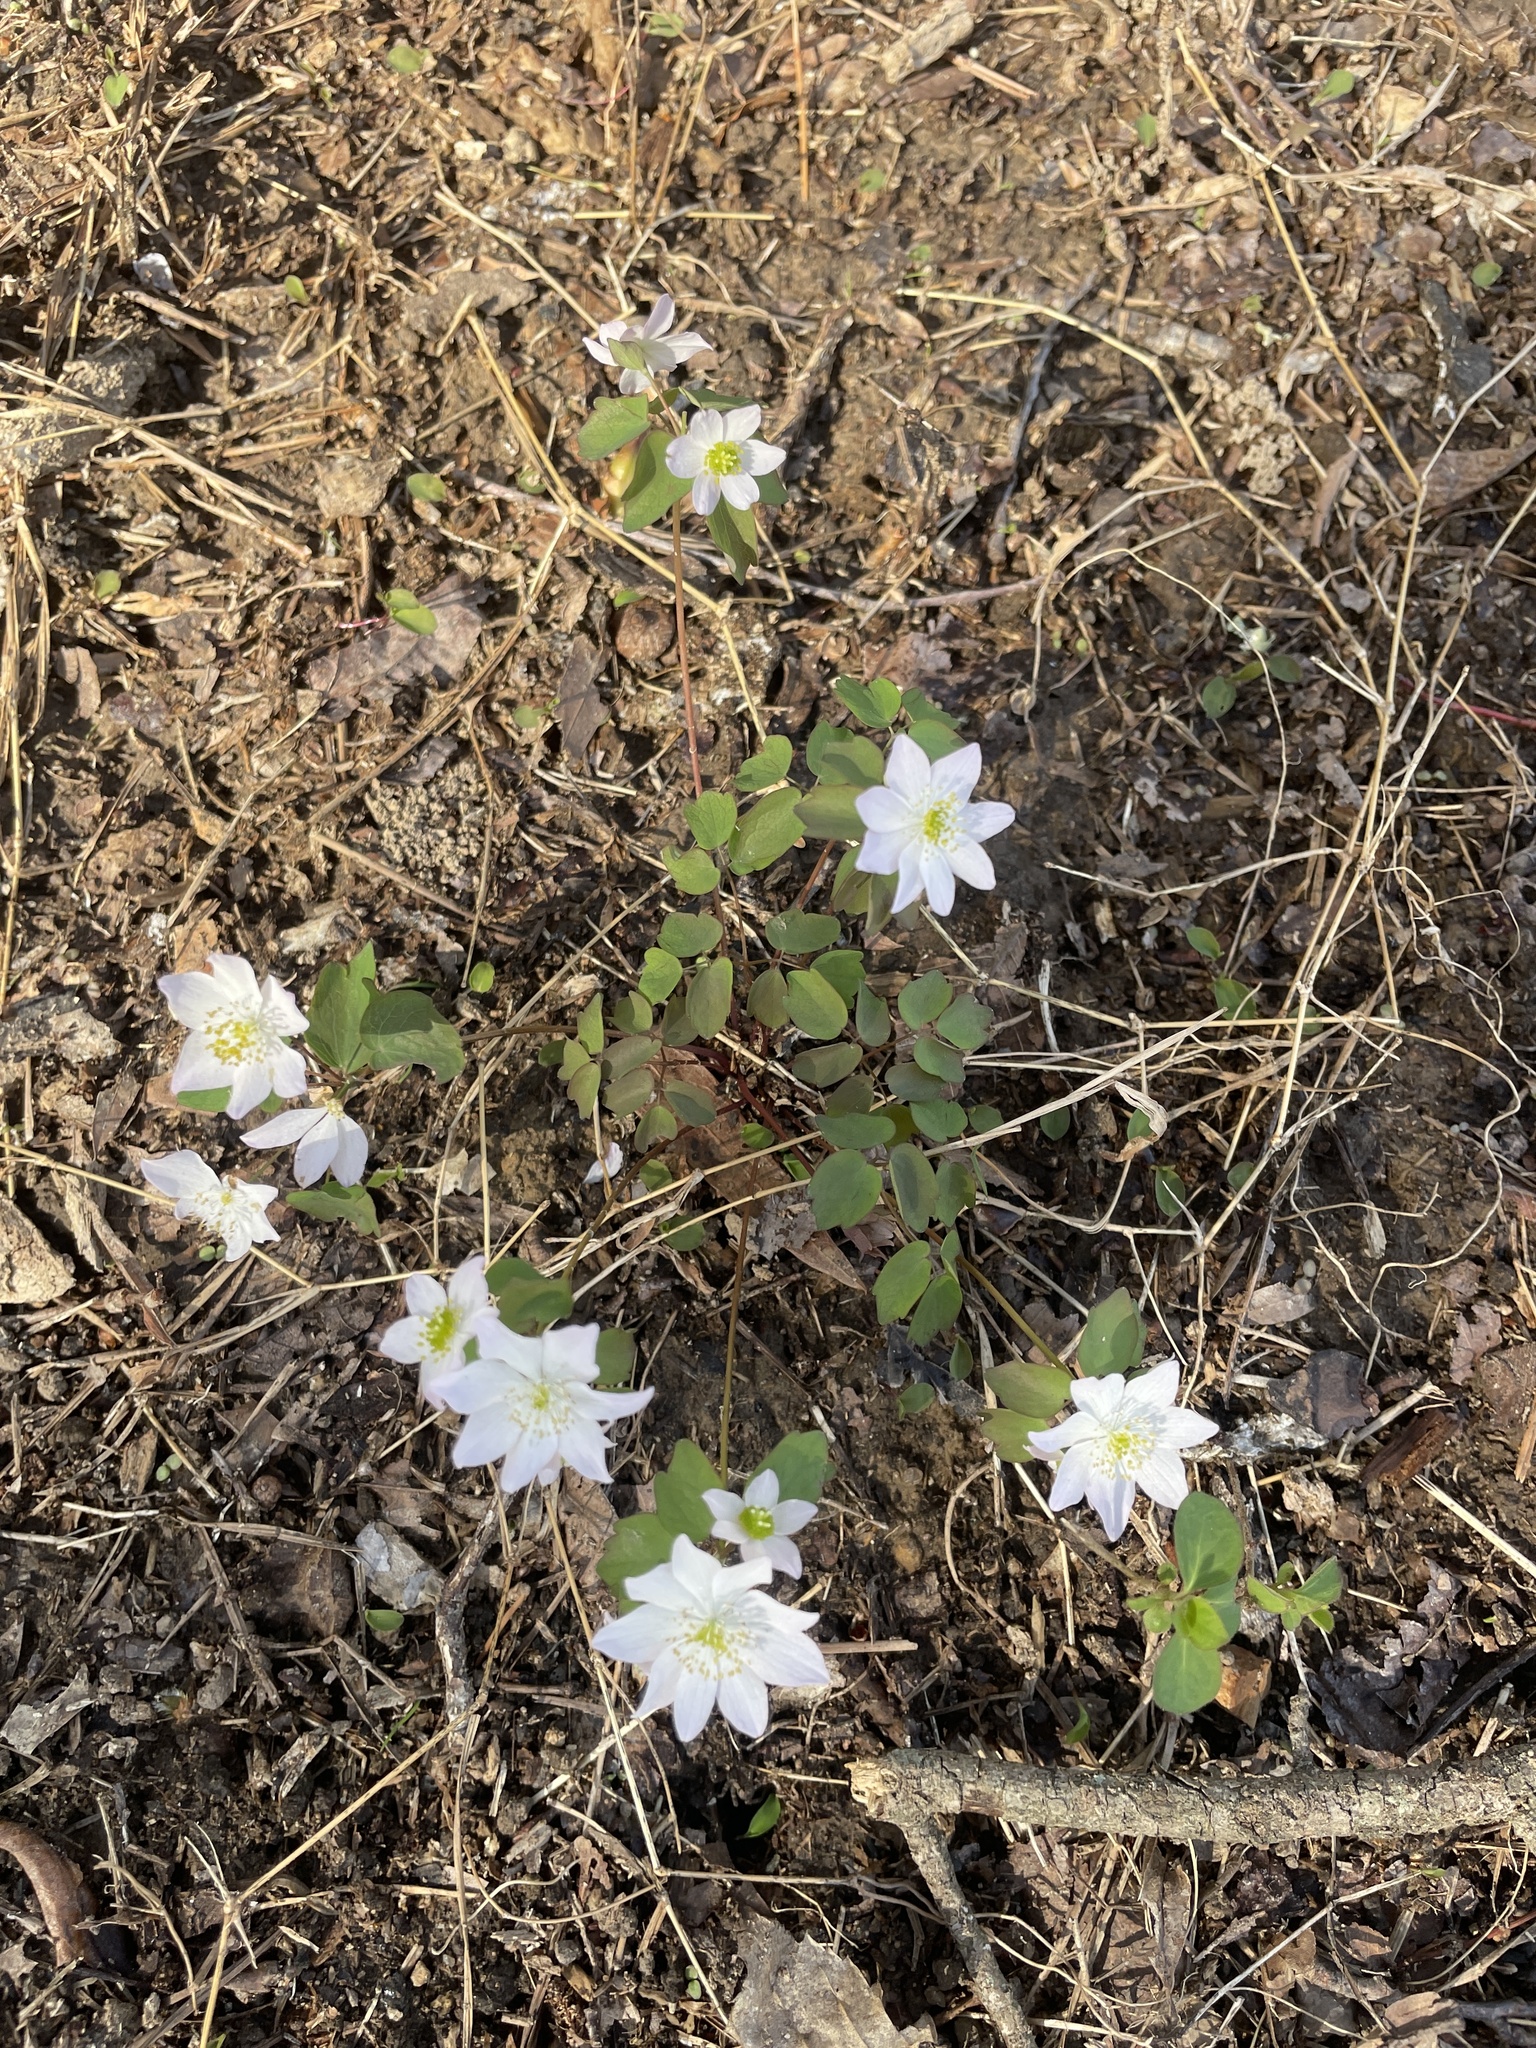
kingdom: Plantae
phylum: Tracheophyta
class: Magnoliopsida
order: Ranunculales
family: Ranunculaceae
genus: Thalictrum
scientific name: Thalictrum thalictroides
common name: Rue-anemone
